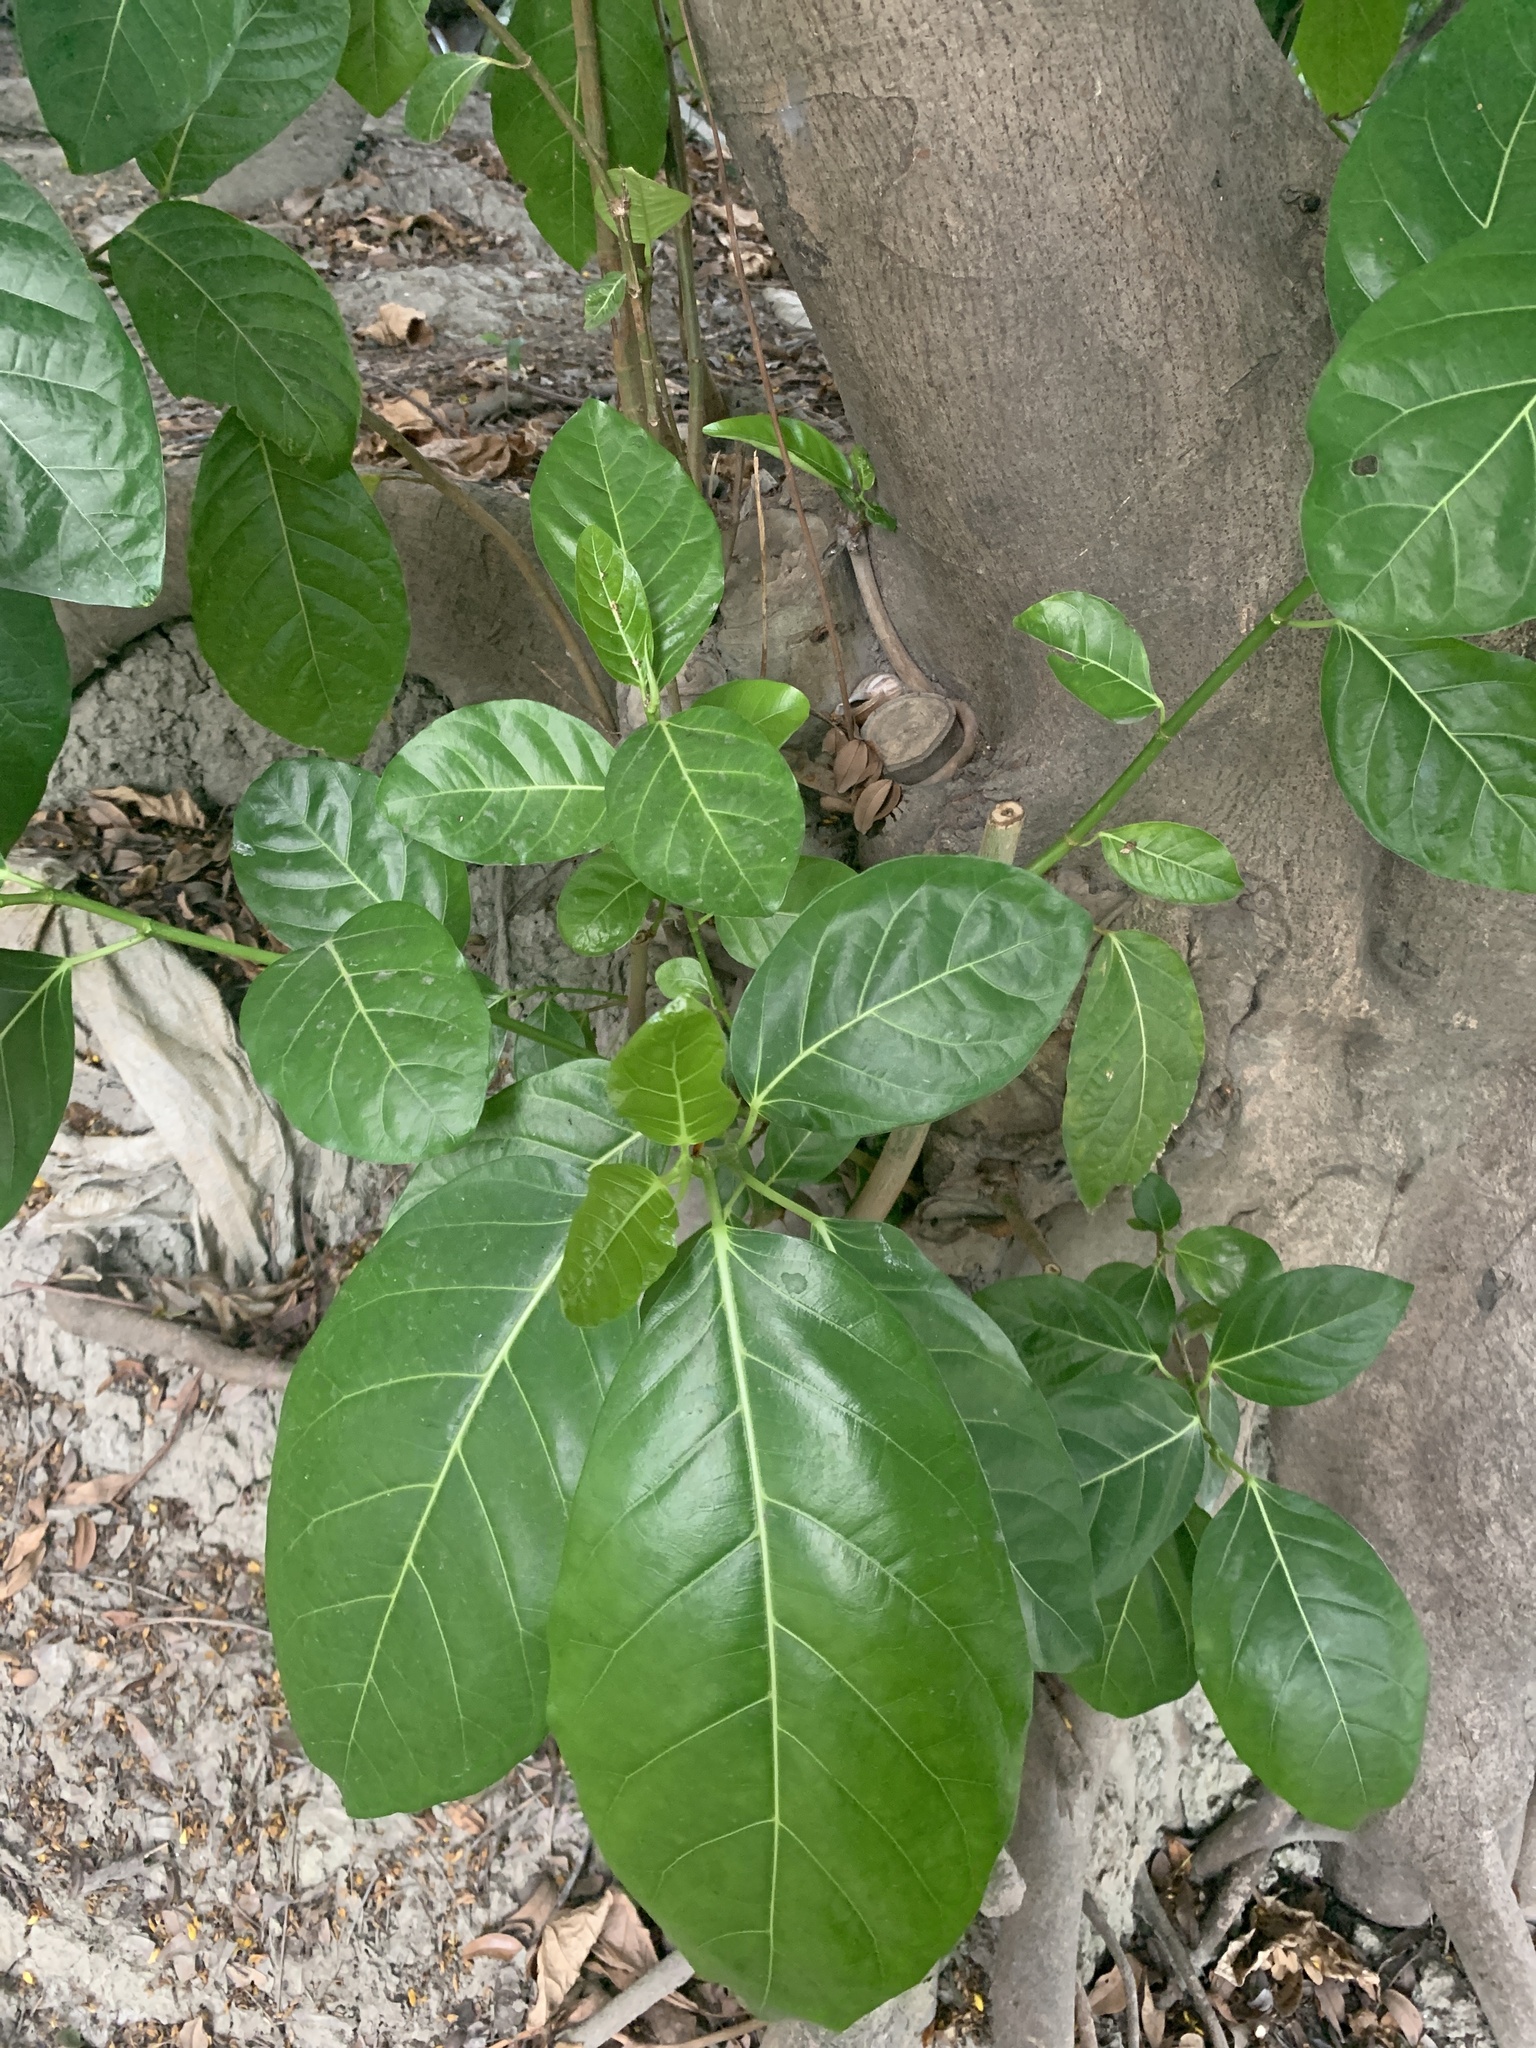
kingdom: Plantae
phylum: Tracheophyta
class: Magnoliopsida
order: Rosales
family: Moraceae
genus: Ficus
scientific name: Ficus septica
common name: Septic fig
